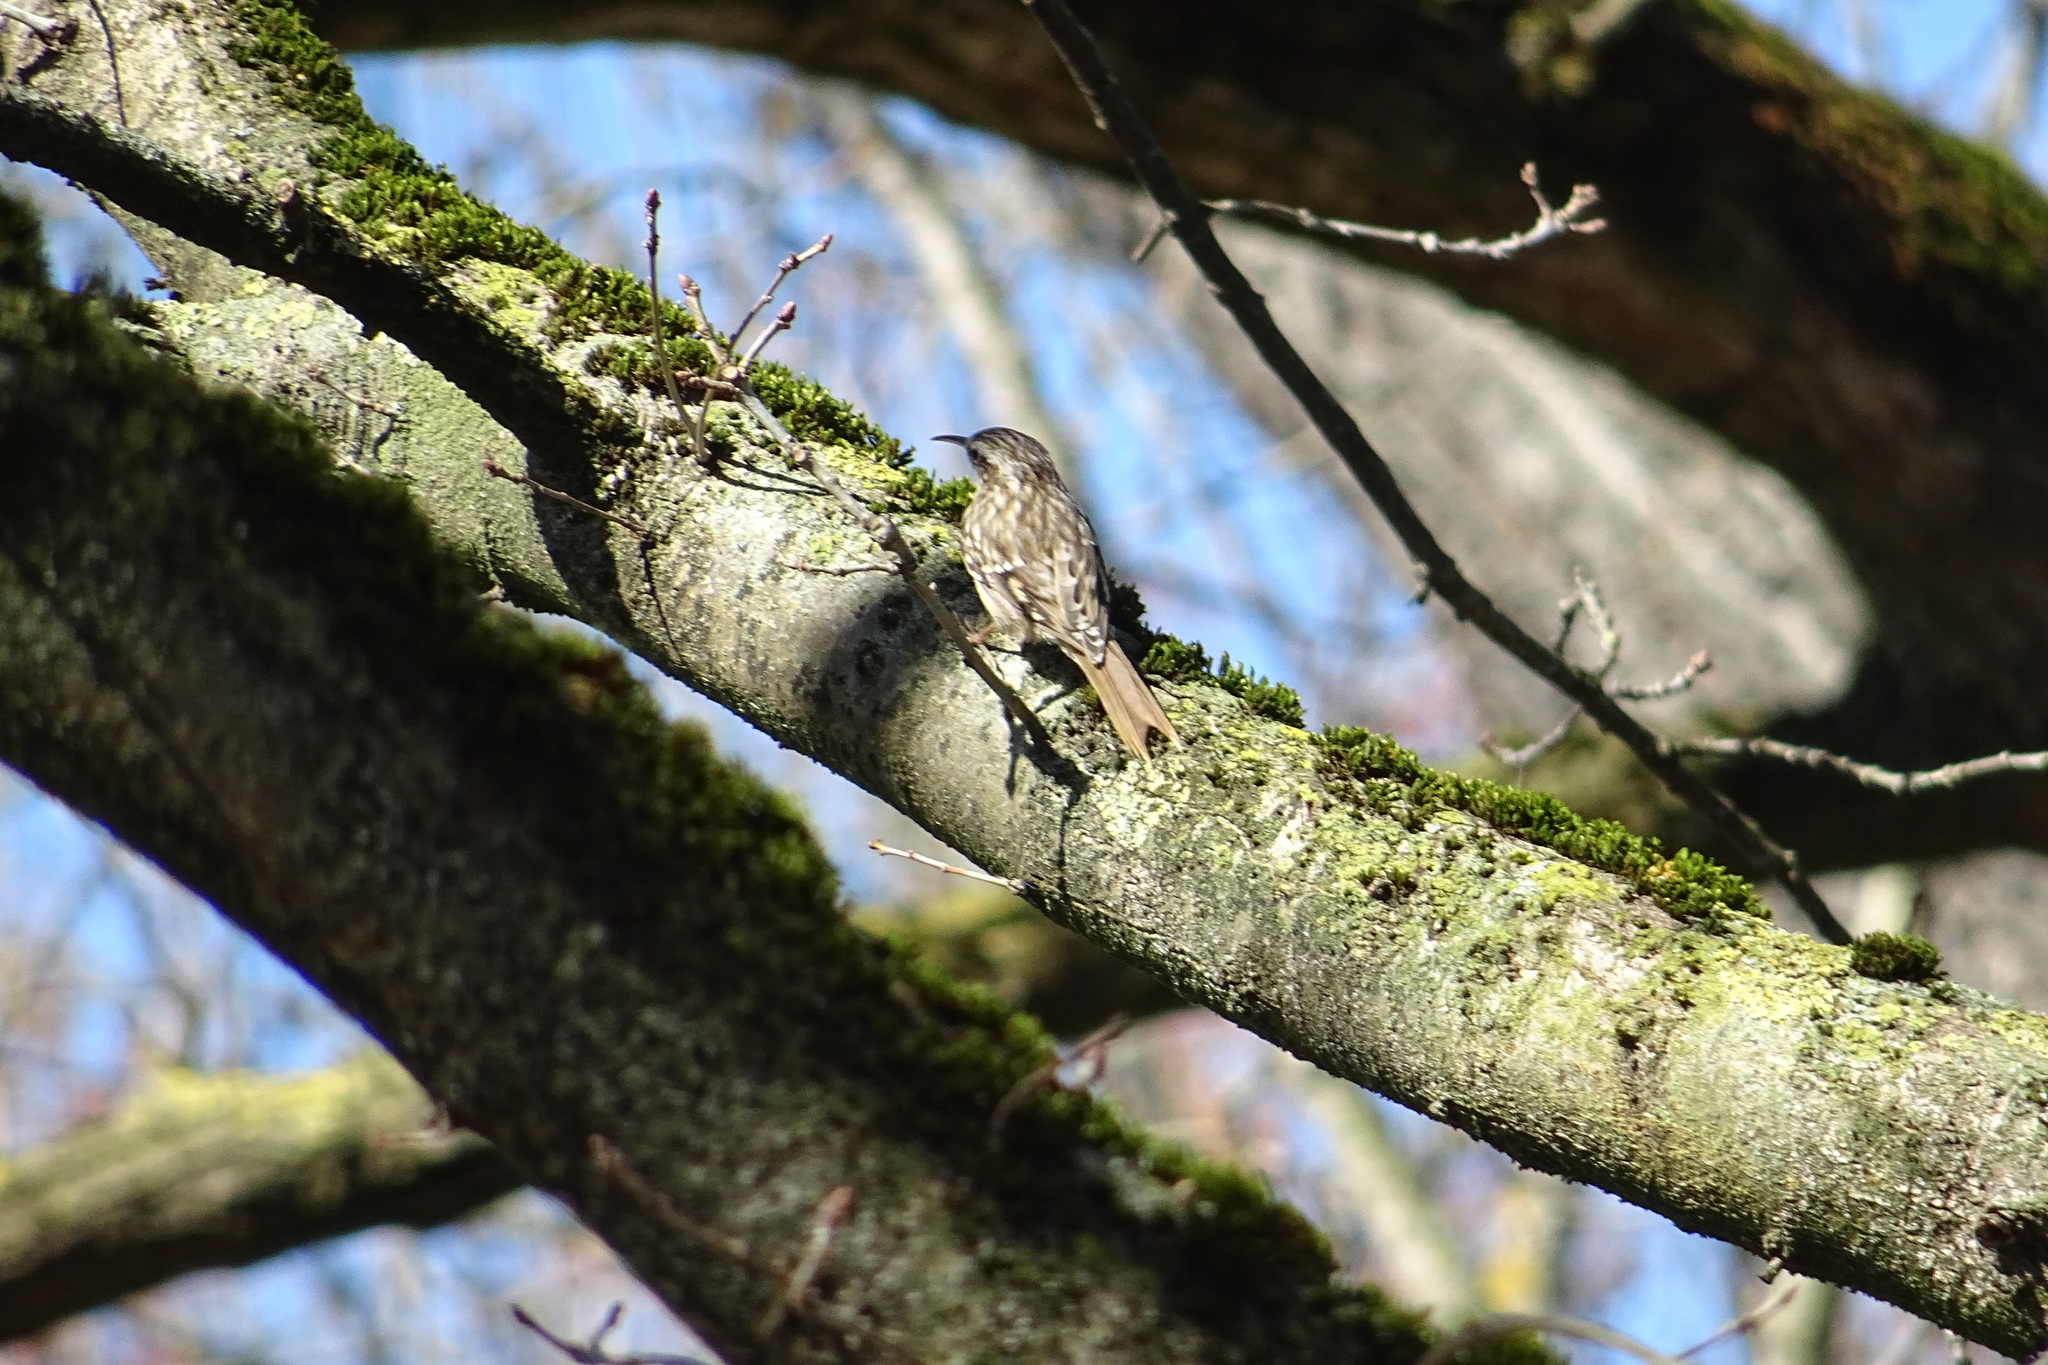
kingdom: Animalia
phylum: Chordata
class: Aves
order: Passeriformes
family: Certhiidae
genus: Certhia
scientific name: Certhia brachydactyla
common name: Short-toed treecreeper
